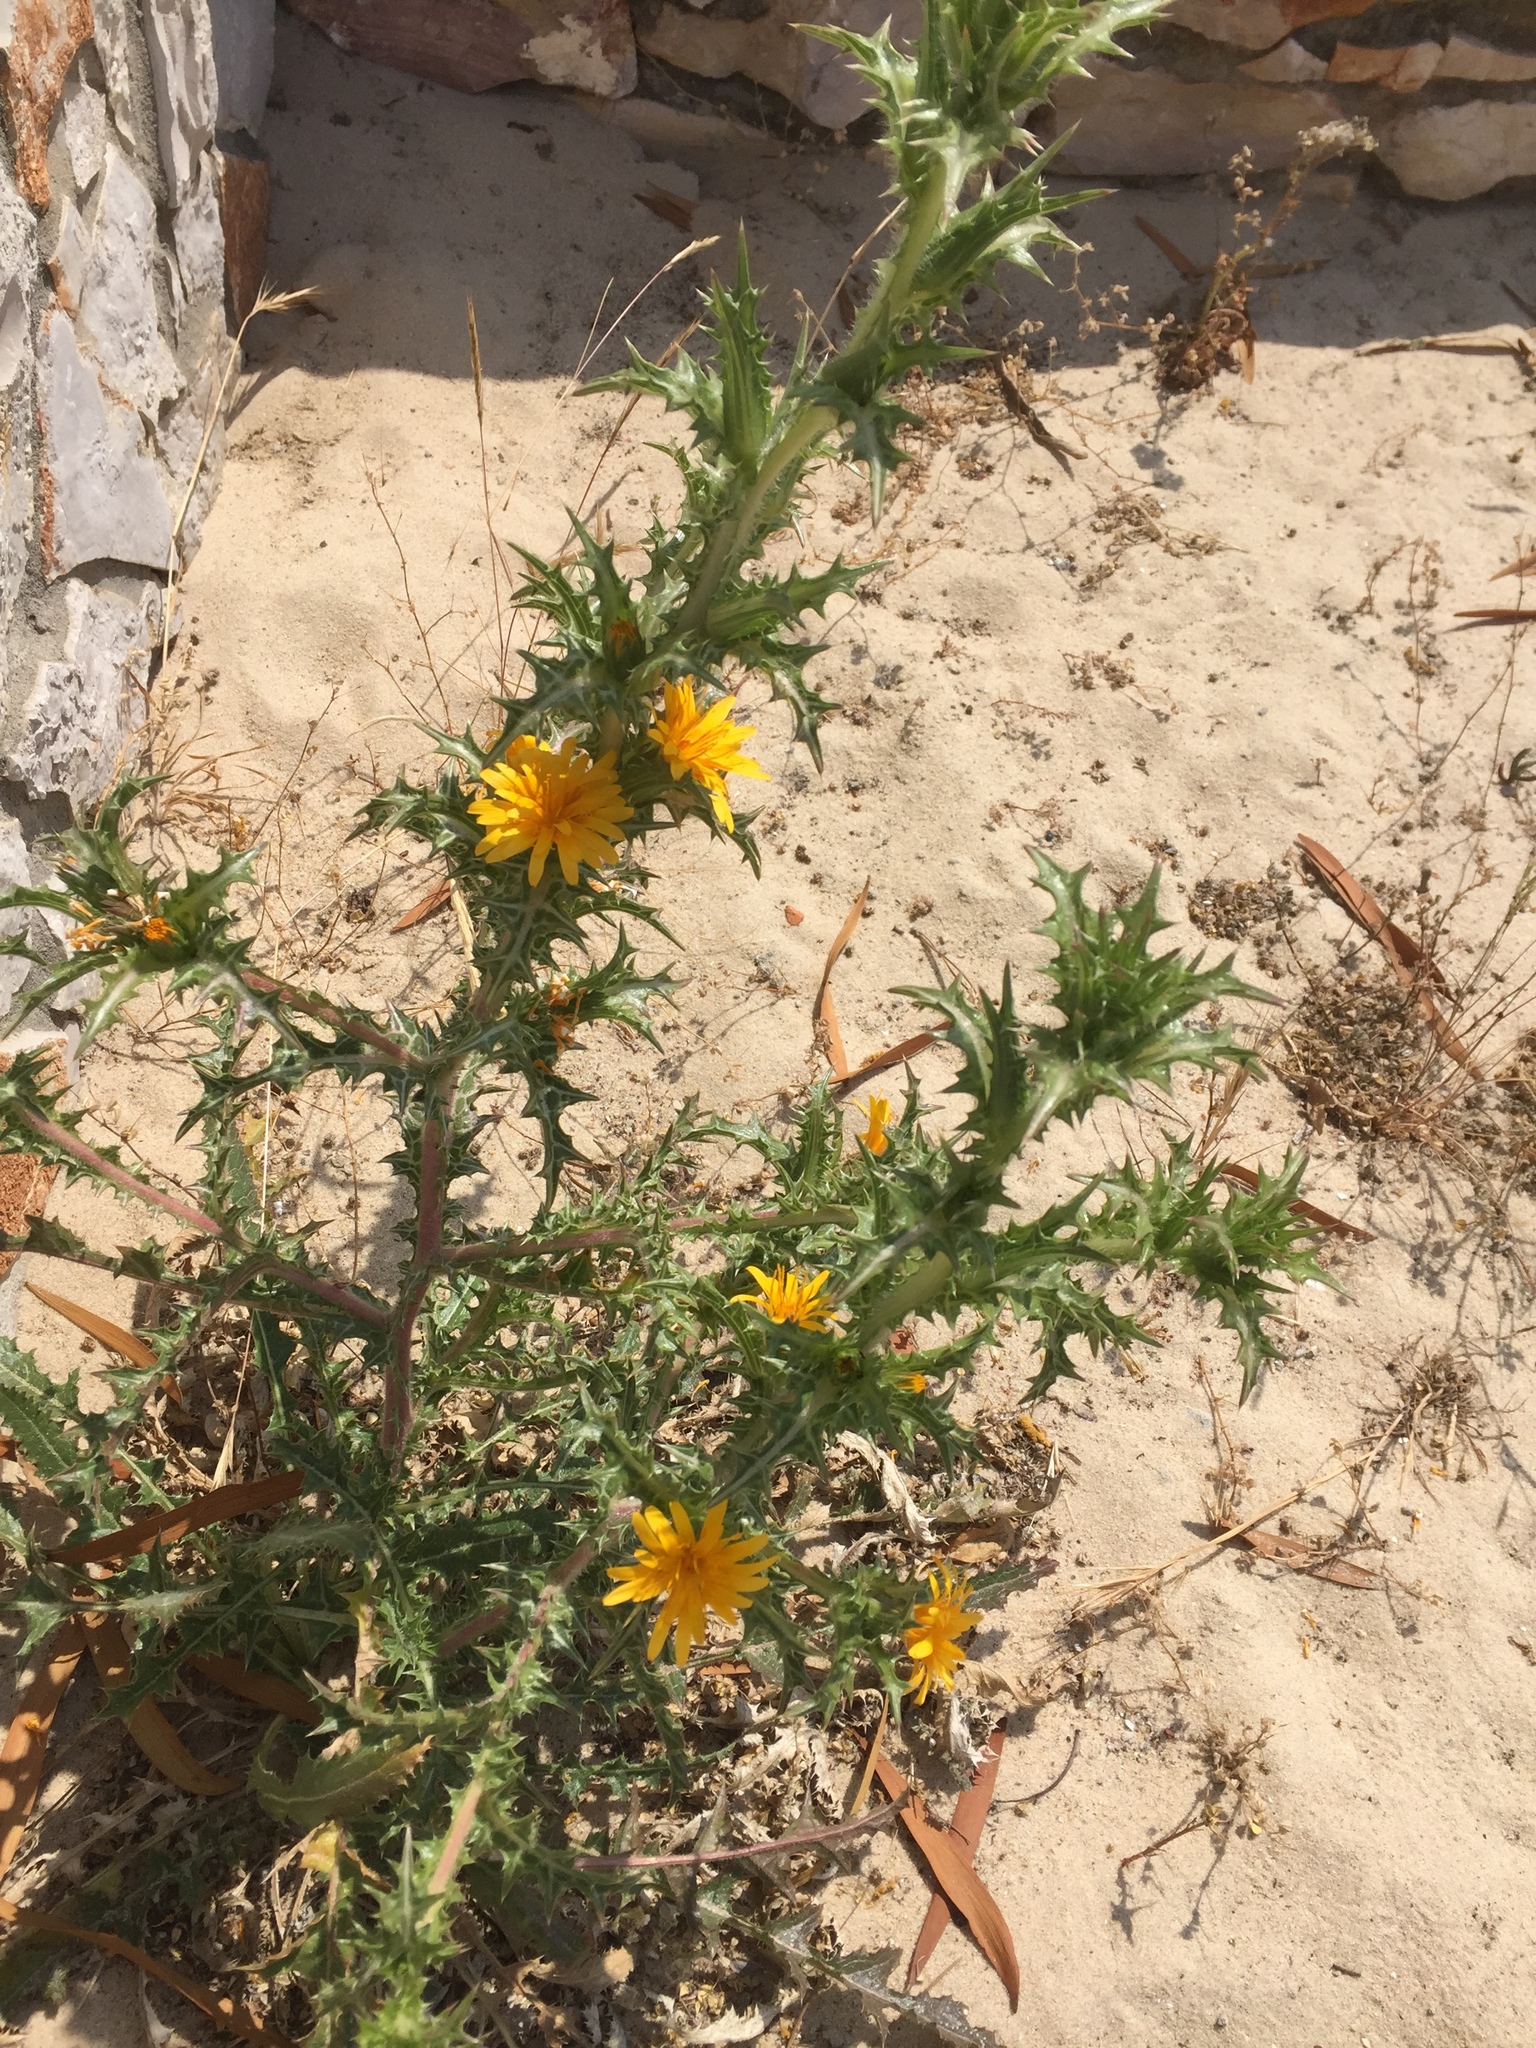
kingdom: Plantae
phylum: Tracheophyta
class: Magnoliopsida
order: Asterales
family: Asteraceae
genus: Scolymus
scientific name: Scolymus hispanicus
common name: Golden thistle
